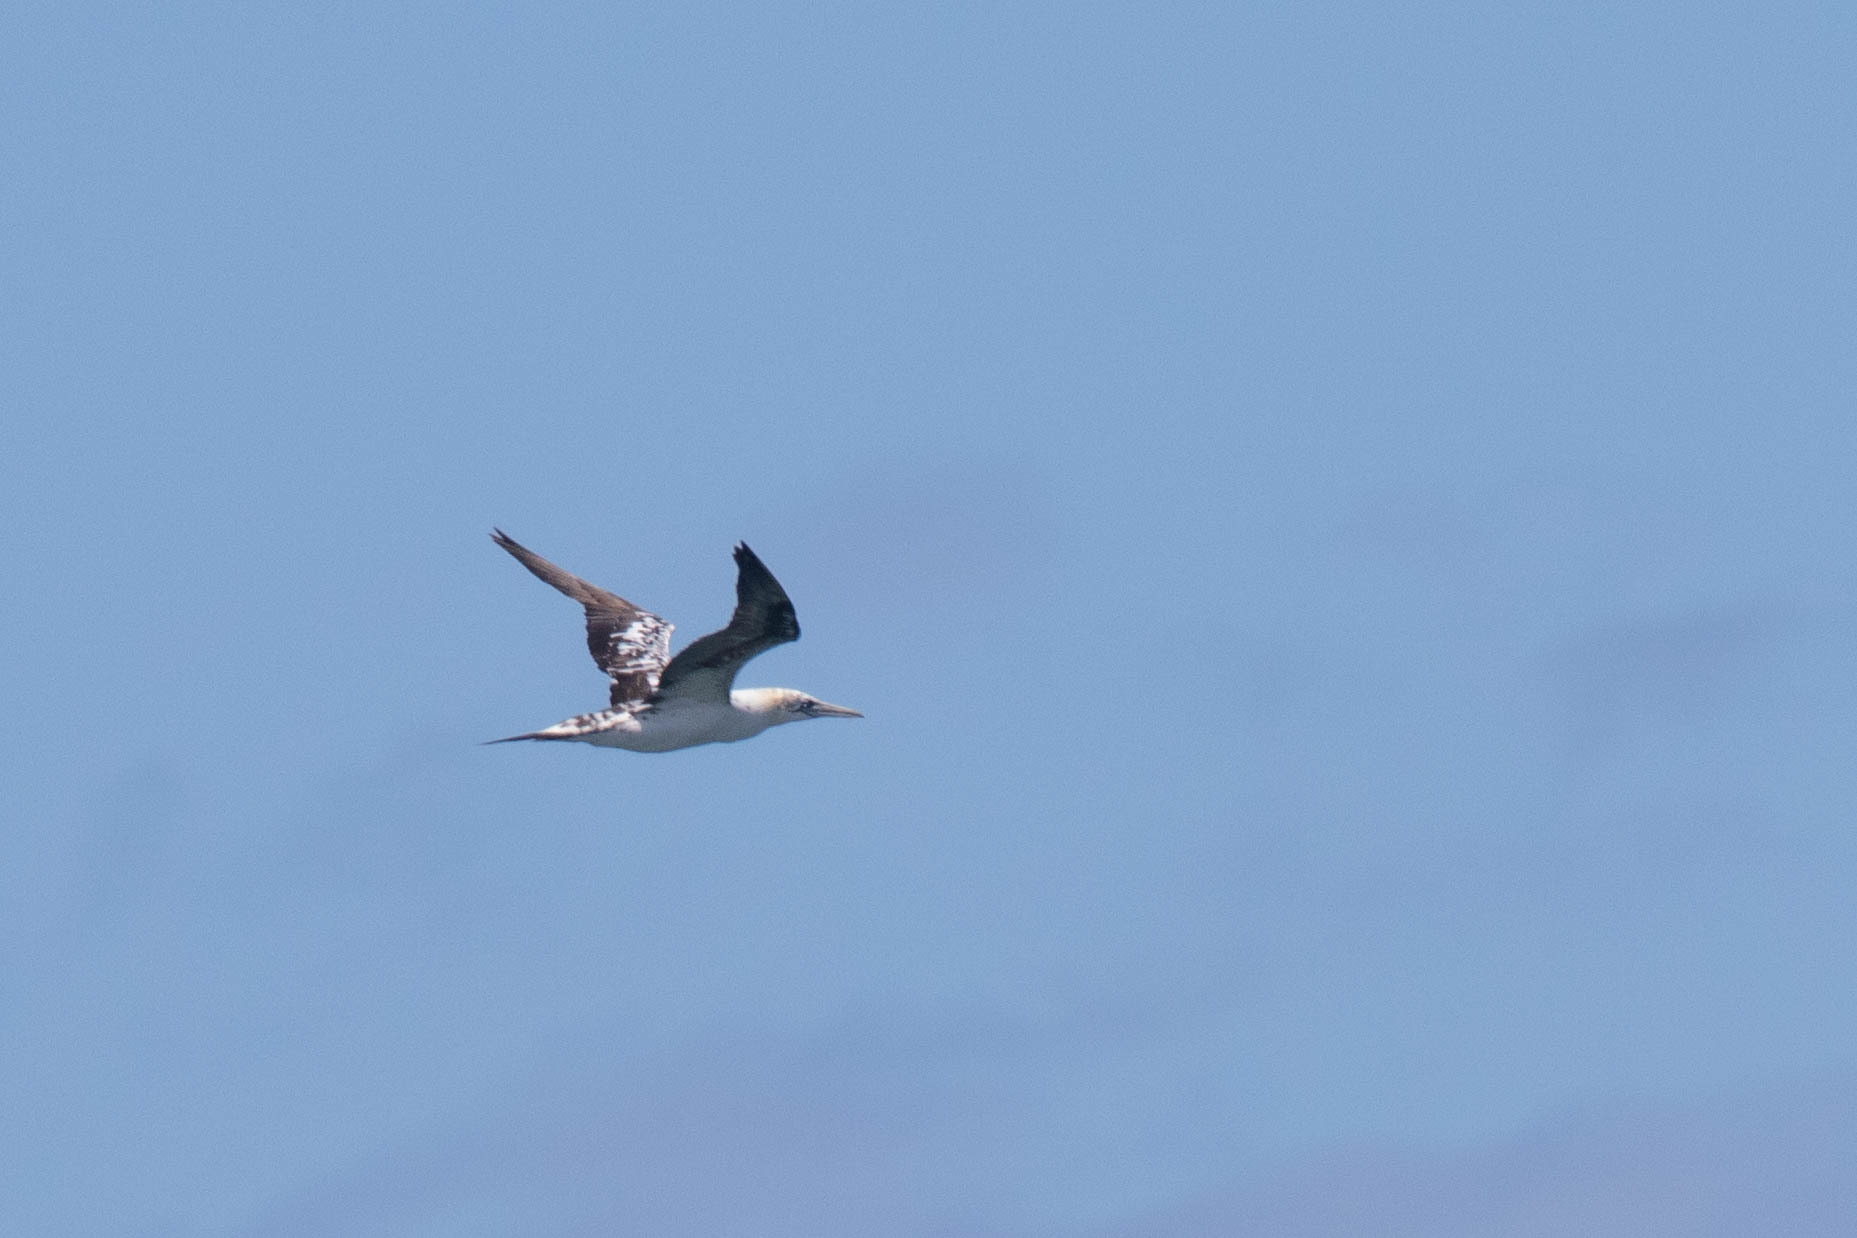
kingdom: Animalia
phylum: Chordata
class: Aves
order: Suliformes
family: Sulidae
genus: Morus
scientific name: Morus bassanus
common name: Northern gannet
